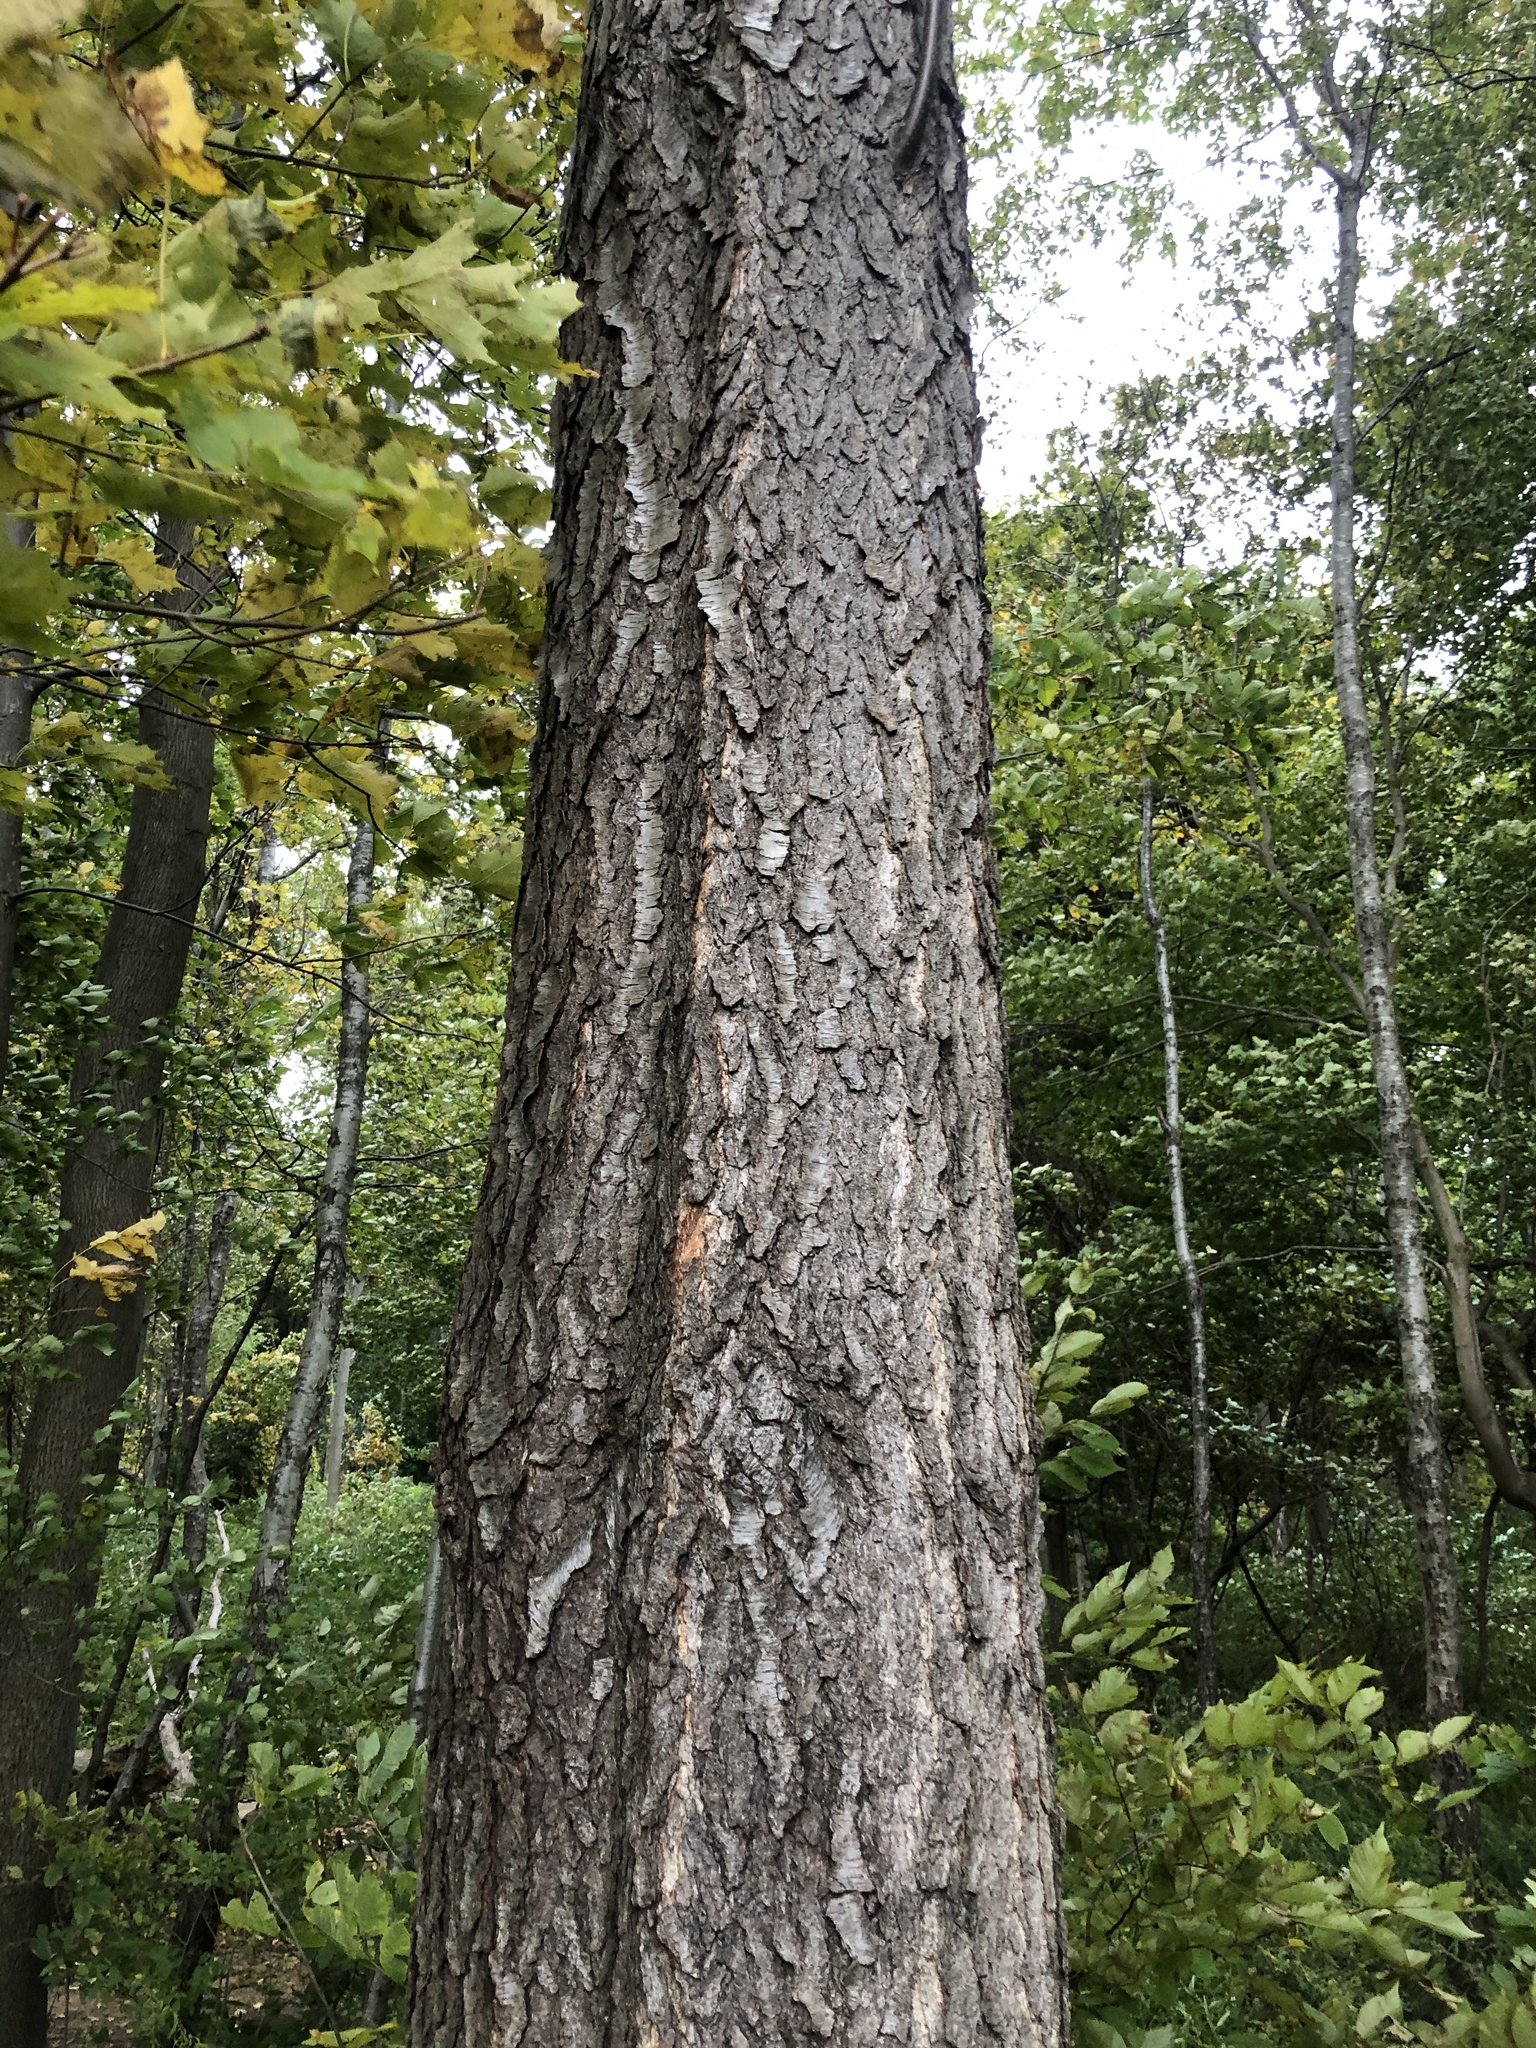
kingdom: Plantae
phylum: Tracheophyta
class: Magnoliopsida
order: Rosales
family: Rosaceae
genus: Prunus
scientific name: Prunus serotina
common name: Black cherry
